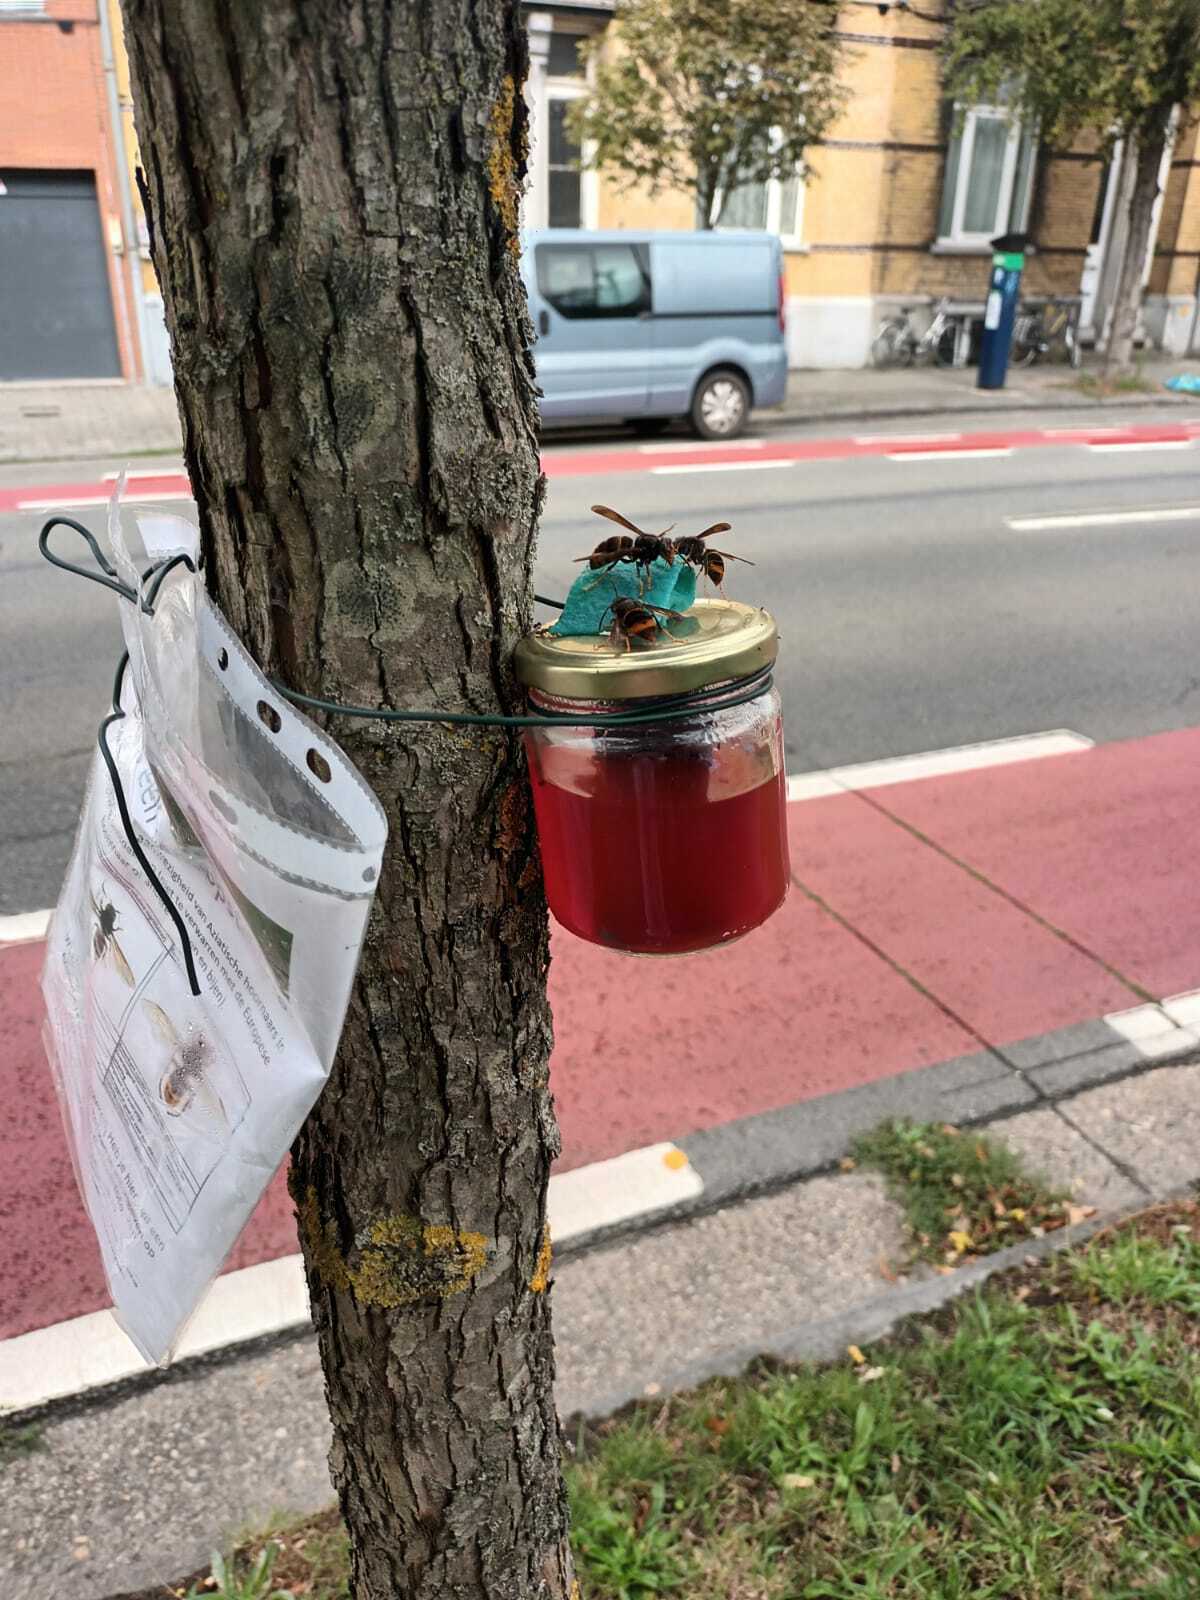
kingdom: Animalia
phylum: Arthropoda
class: Insecta
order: Hymenoptera
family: Vespidae
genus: Vespa
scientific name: Vespa velutina
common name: Asian hornet
